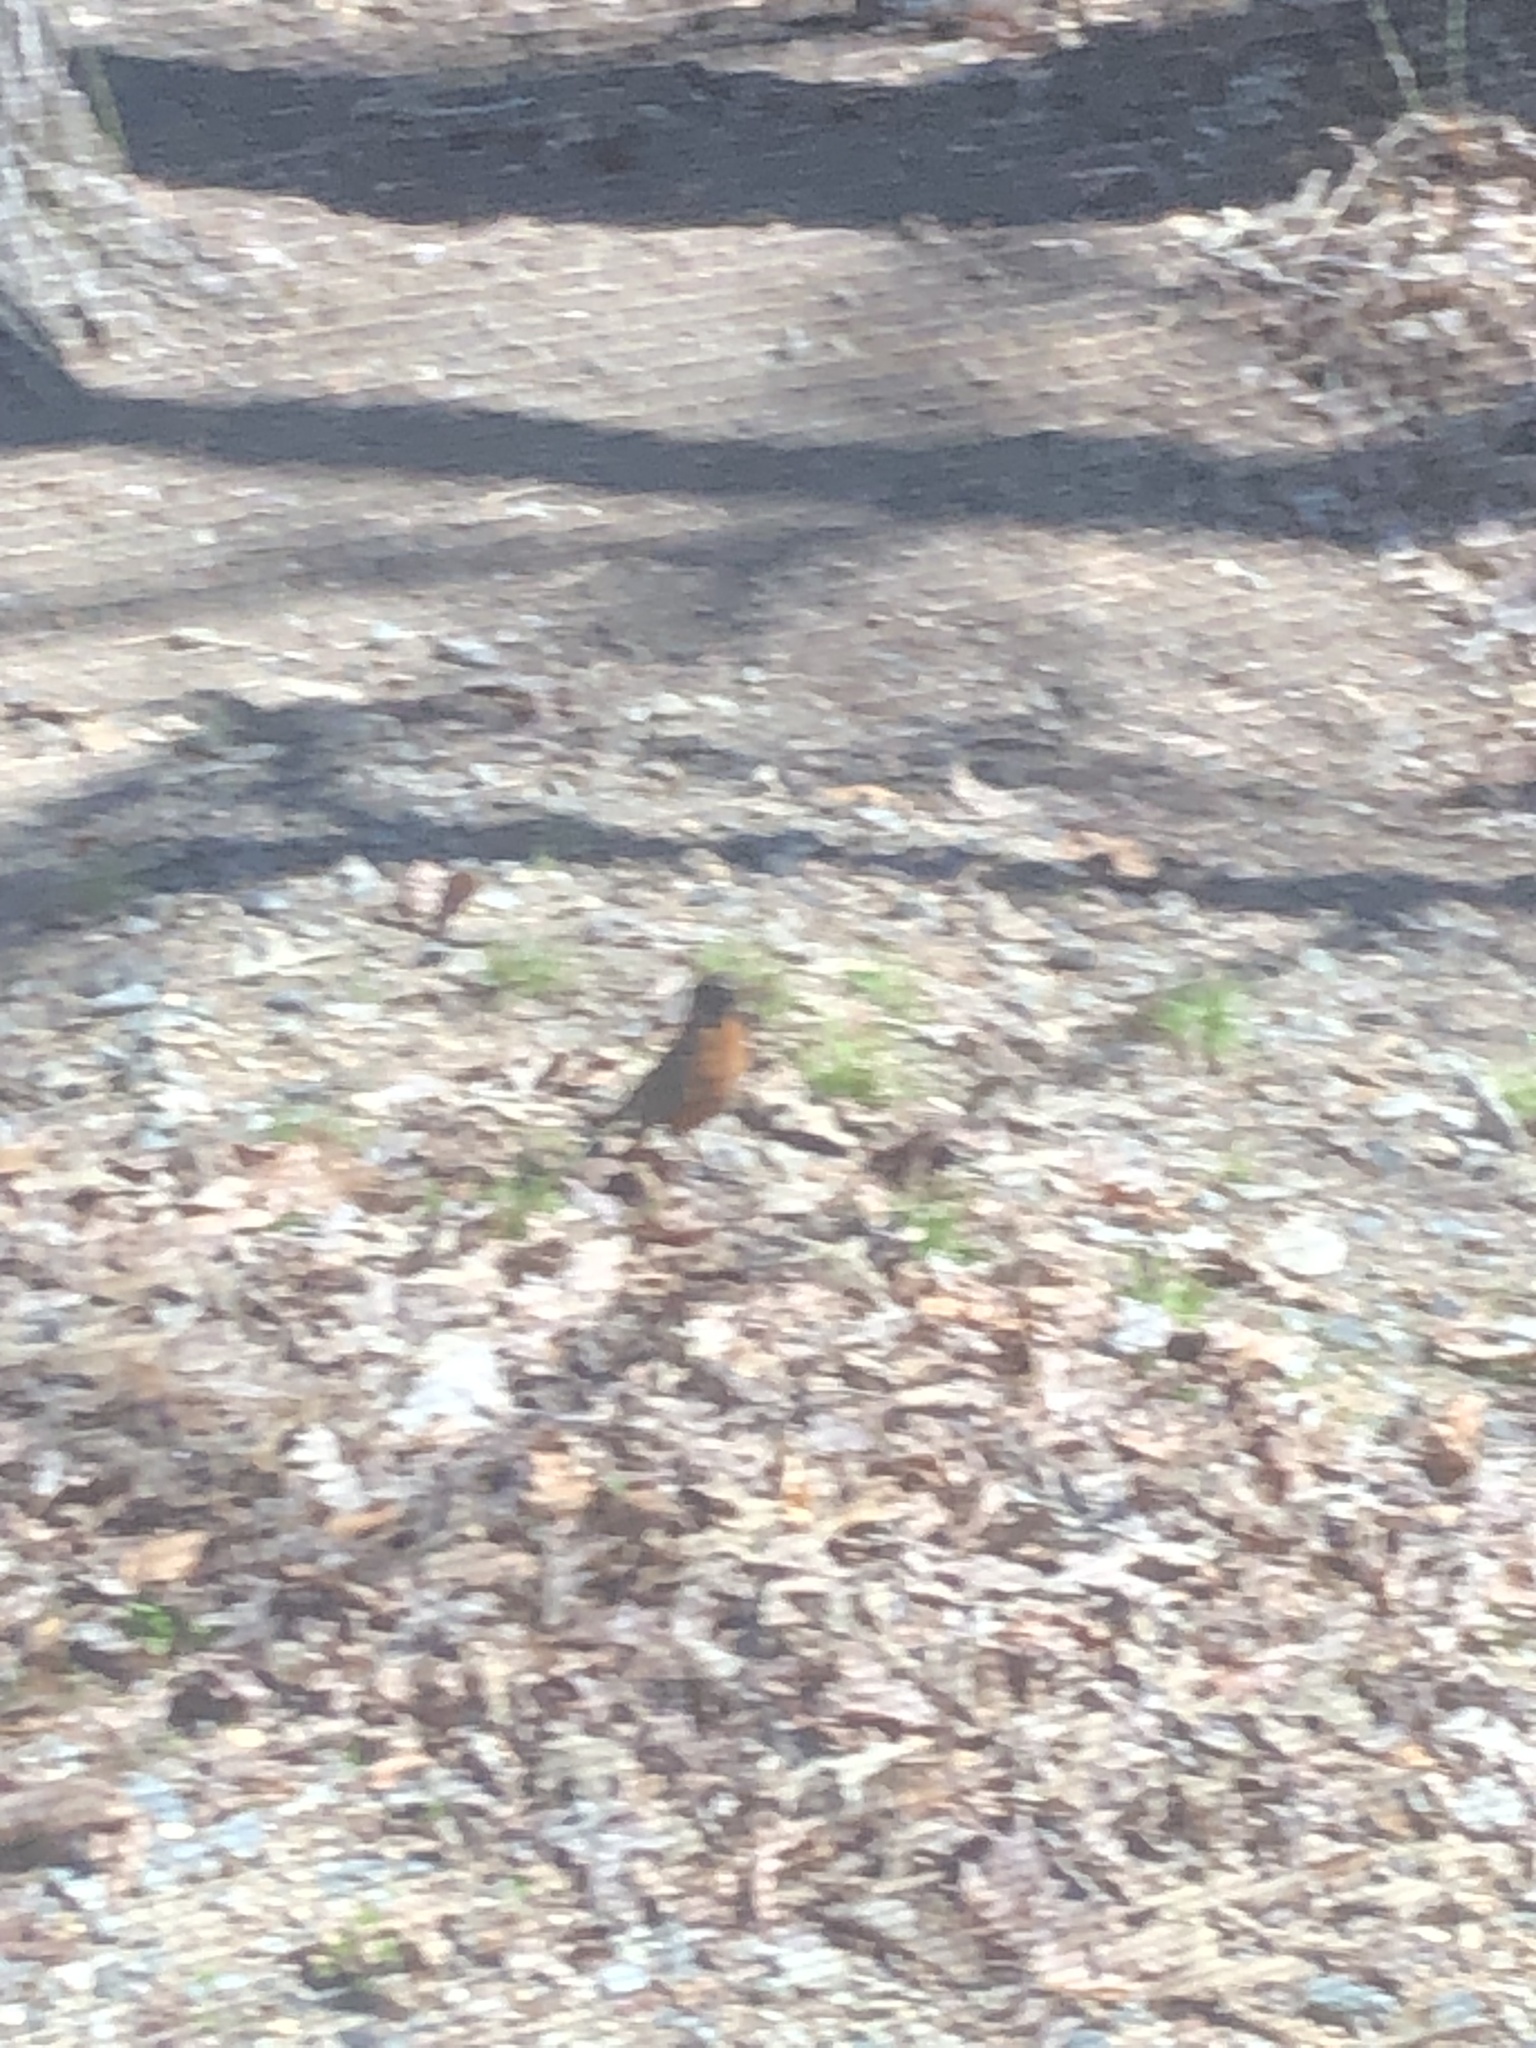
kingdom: Animalia
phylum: Chordata
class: Aves
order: Passeriformes
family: Turdidae
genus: Turdus
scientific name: Turdus migratorius
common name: American robin
